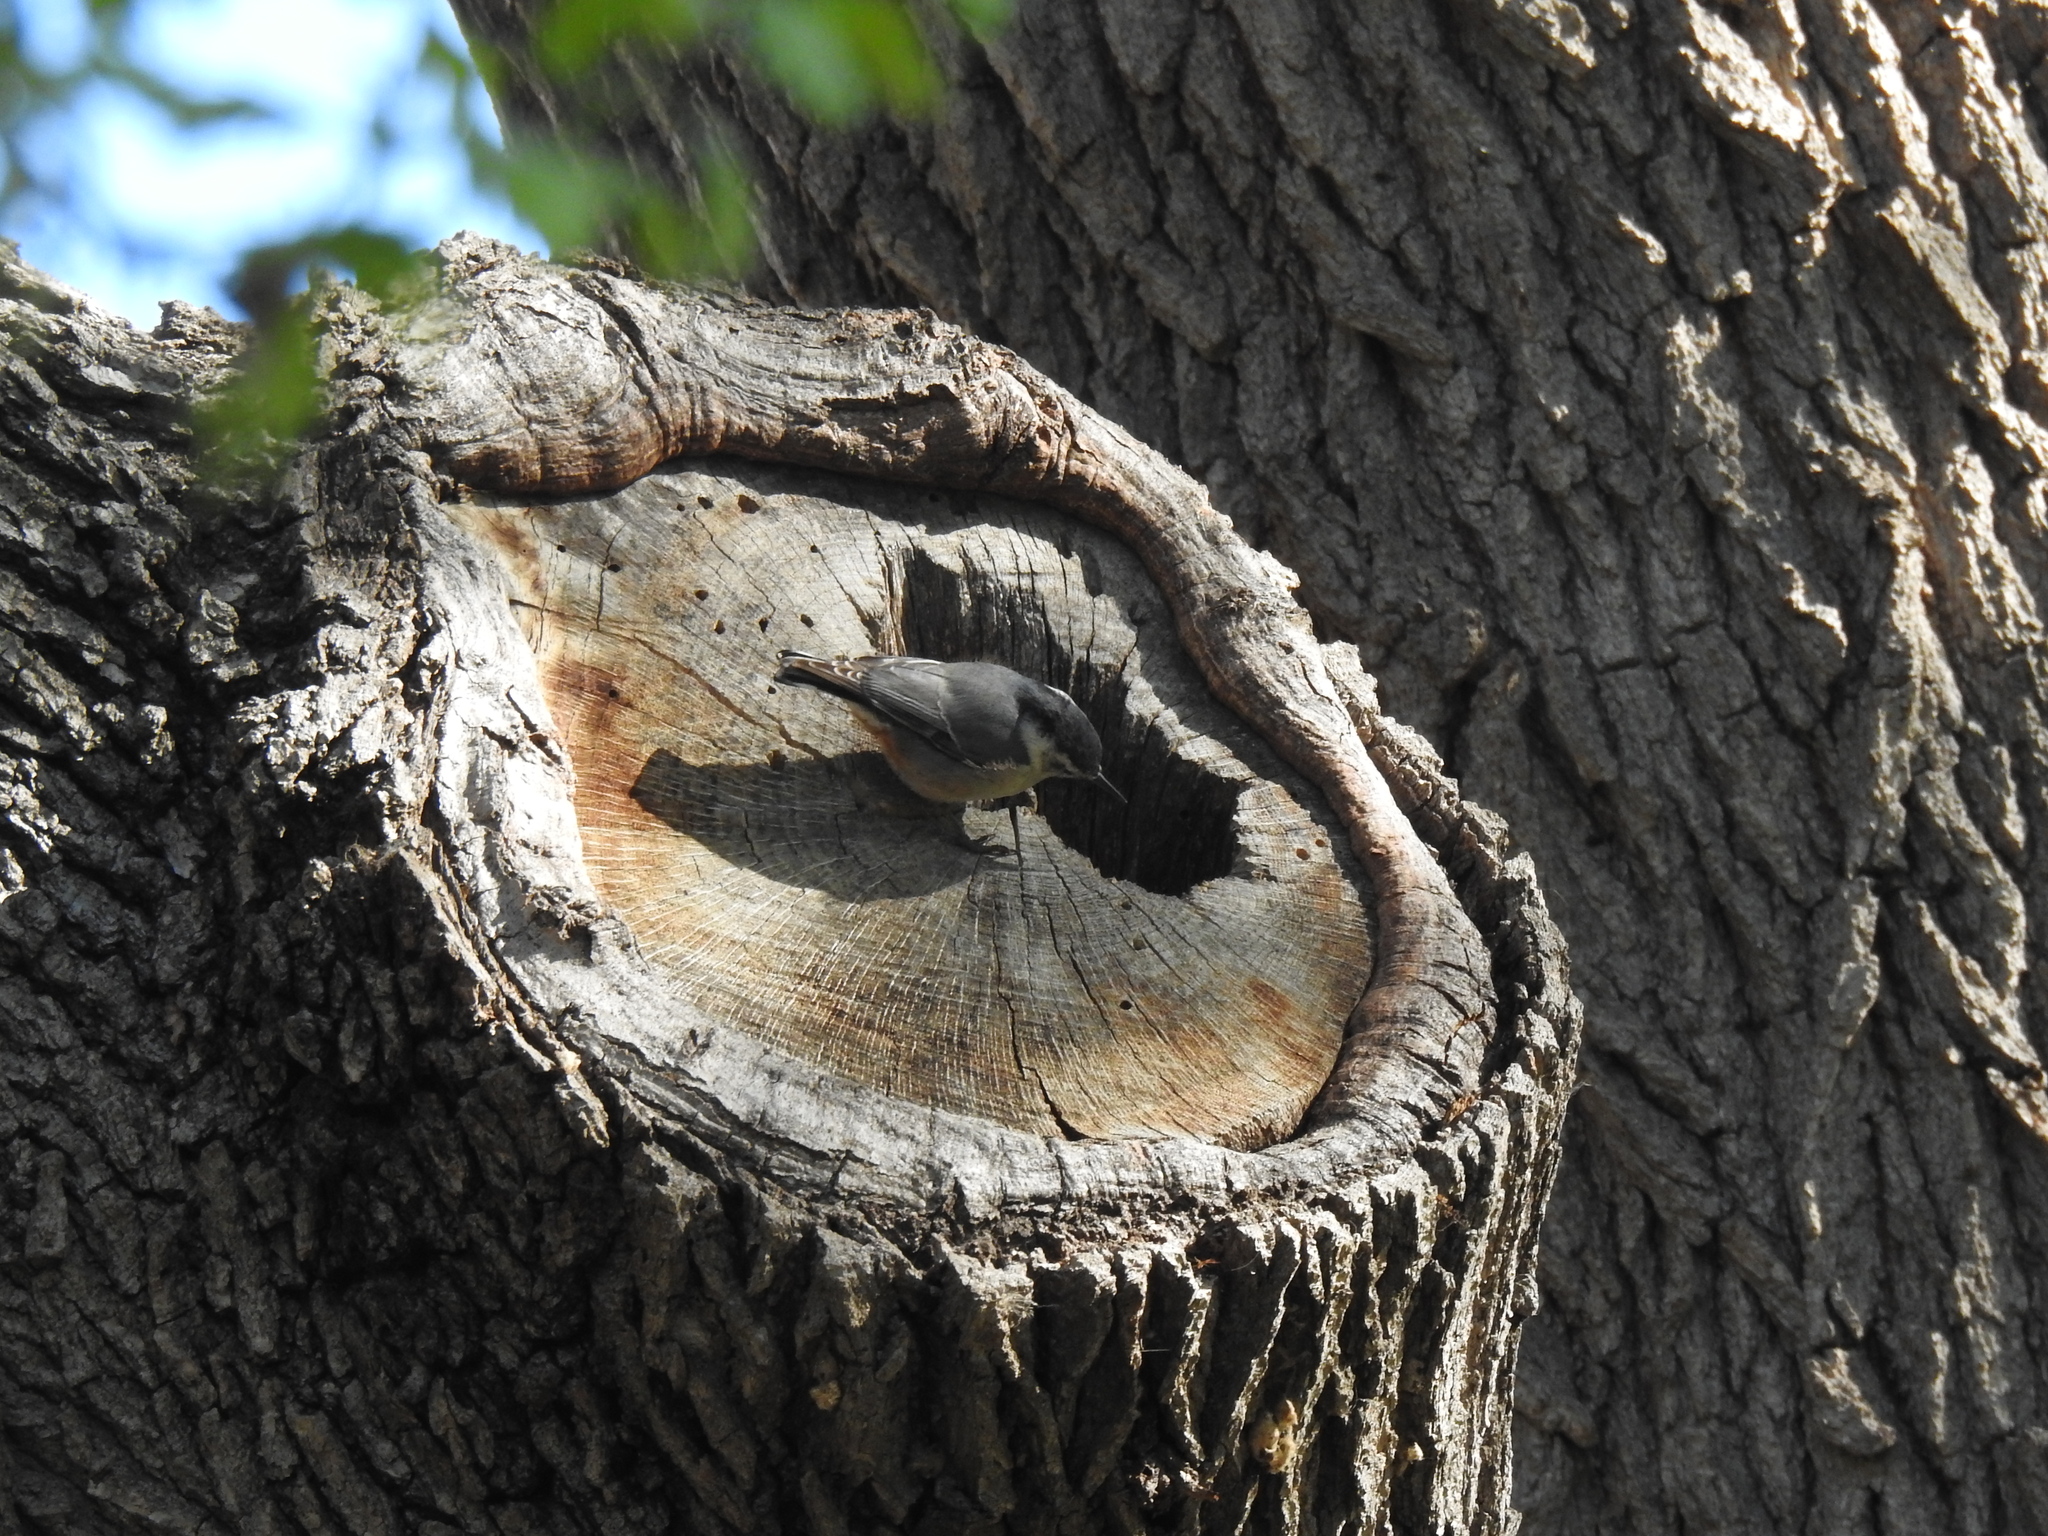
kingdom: Animalia
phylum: Chordata
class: Aves
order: Passeriformes
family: Sittidae
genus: Sitta
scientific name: Sitta carolinensis
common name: White-breasted nuthatch
